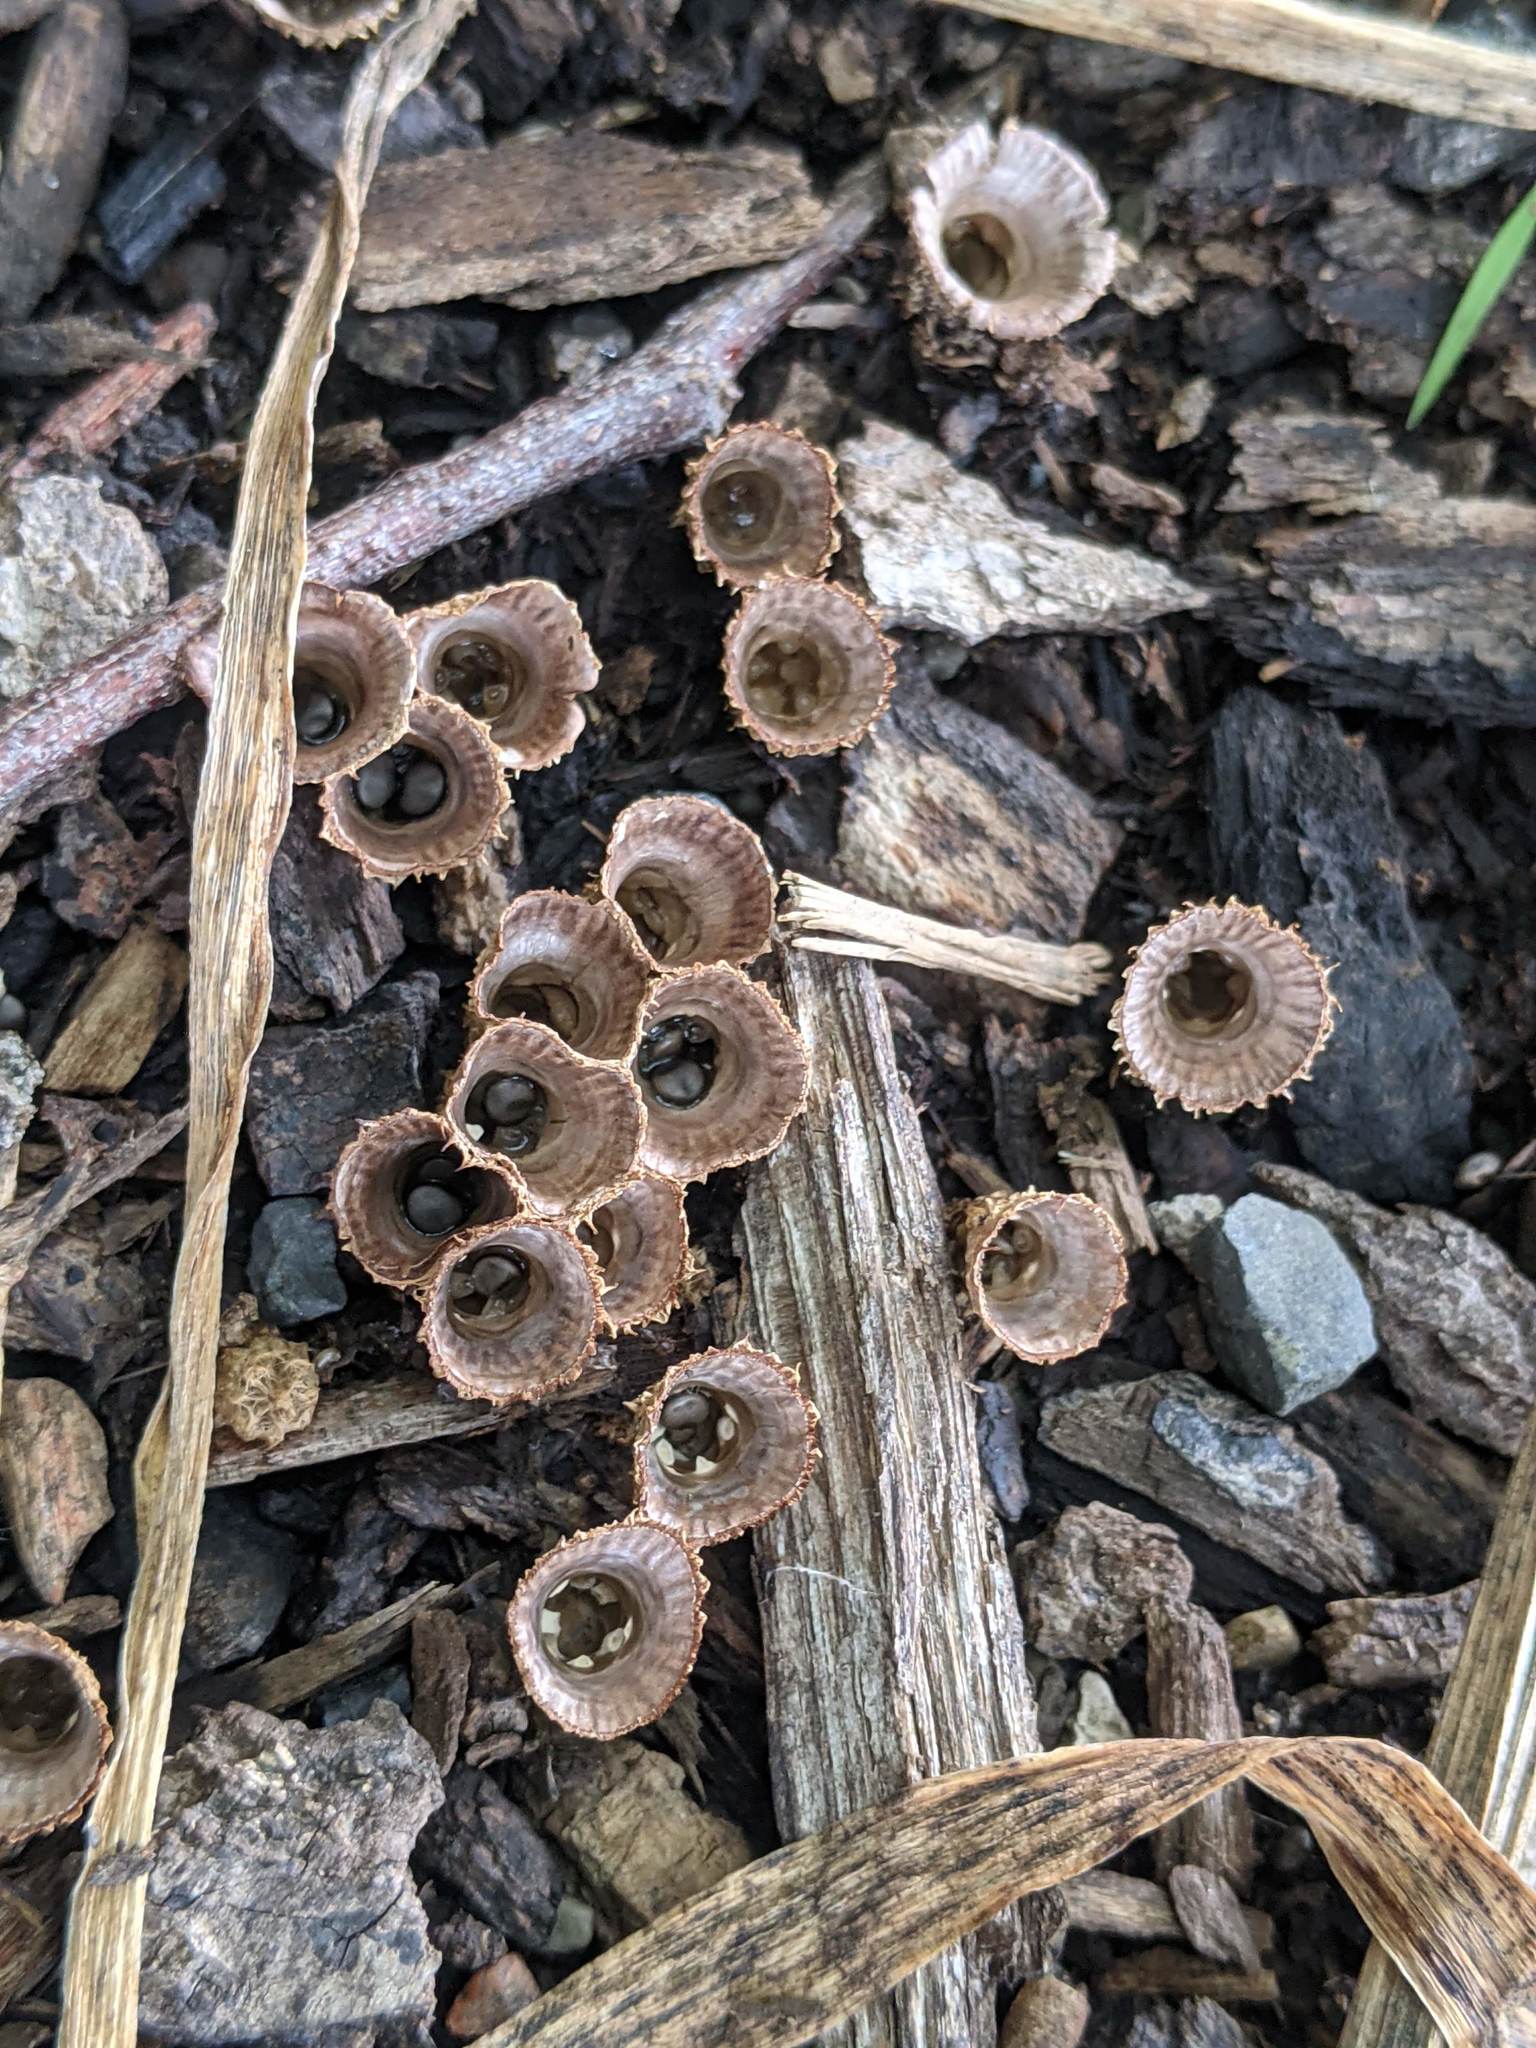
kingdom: Fungi
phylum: Basidiomycota
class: Agaricomycetes
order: Agaricales
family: Agaricaceae
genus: Cyathus
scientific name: Cyathus striatus
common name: Fluted bird's nest
